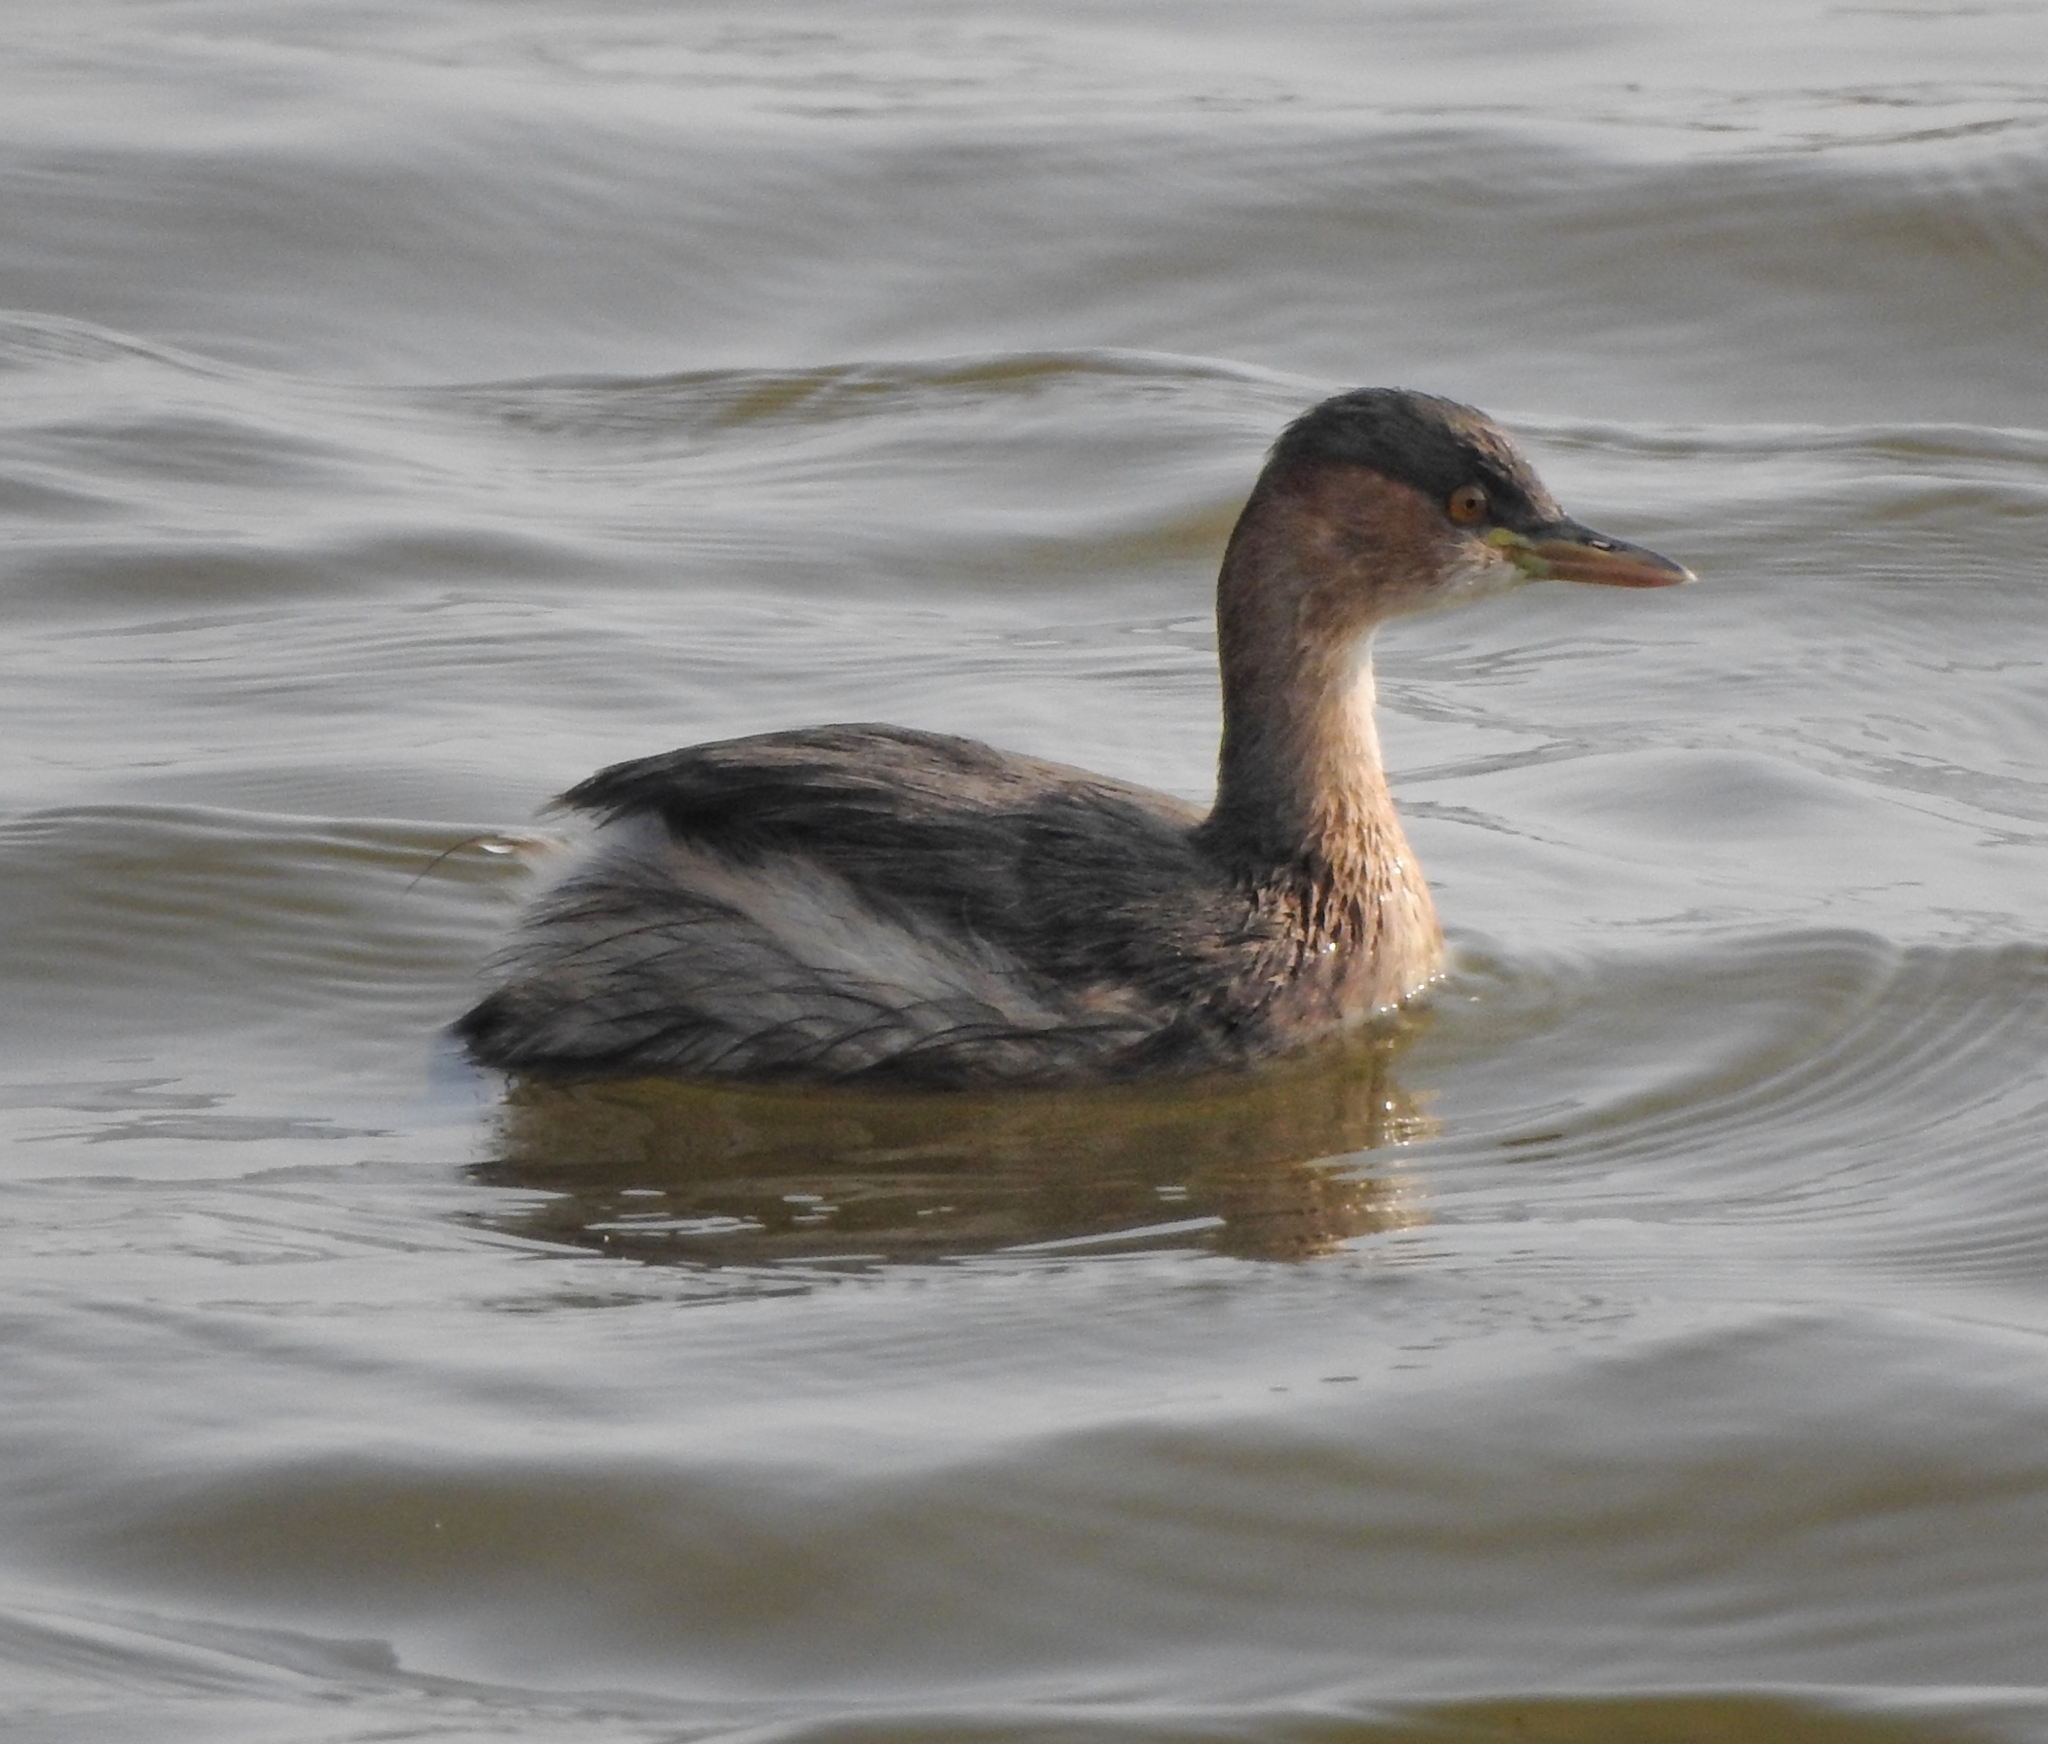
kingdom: Animalia
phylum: Chordata
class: Aves
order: Podicipediformes
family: Podicipedidae
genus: Tachybaptus
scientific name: Tachybaptus ruficollis
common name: Little grebe
